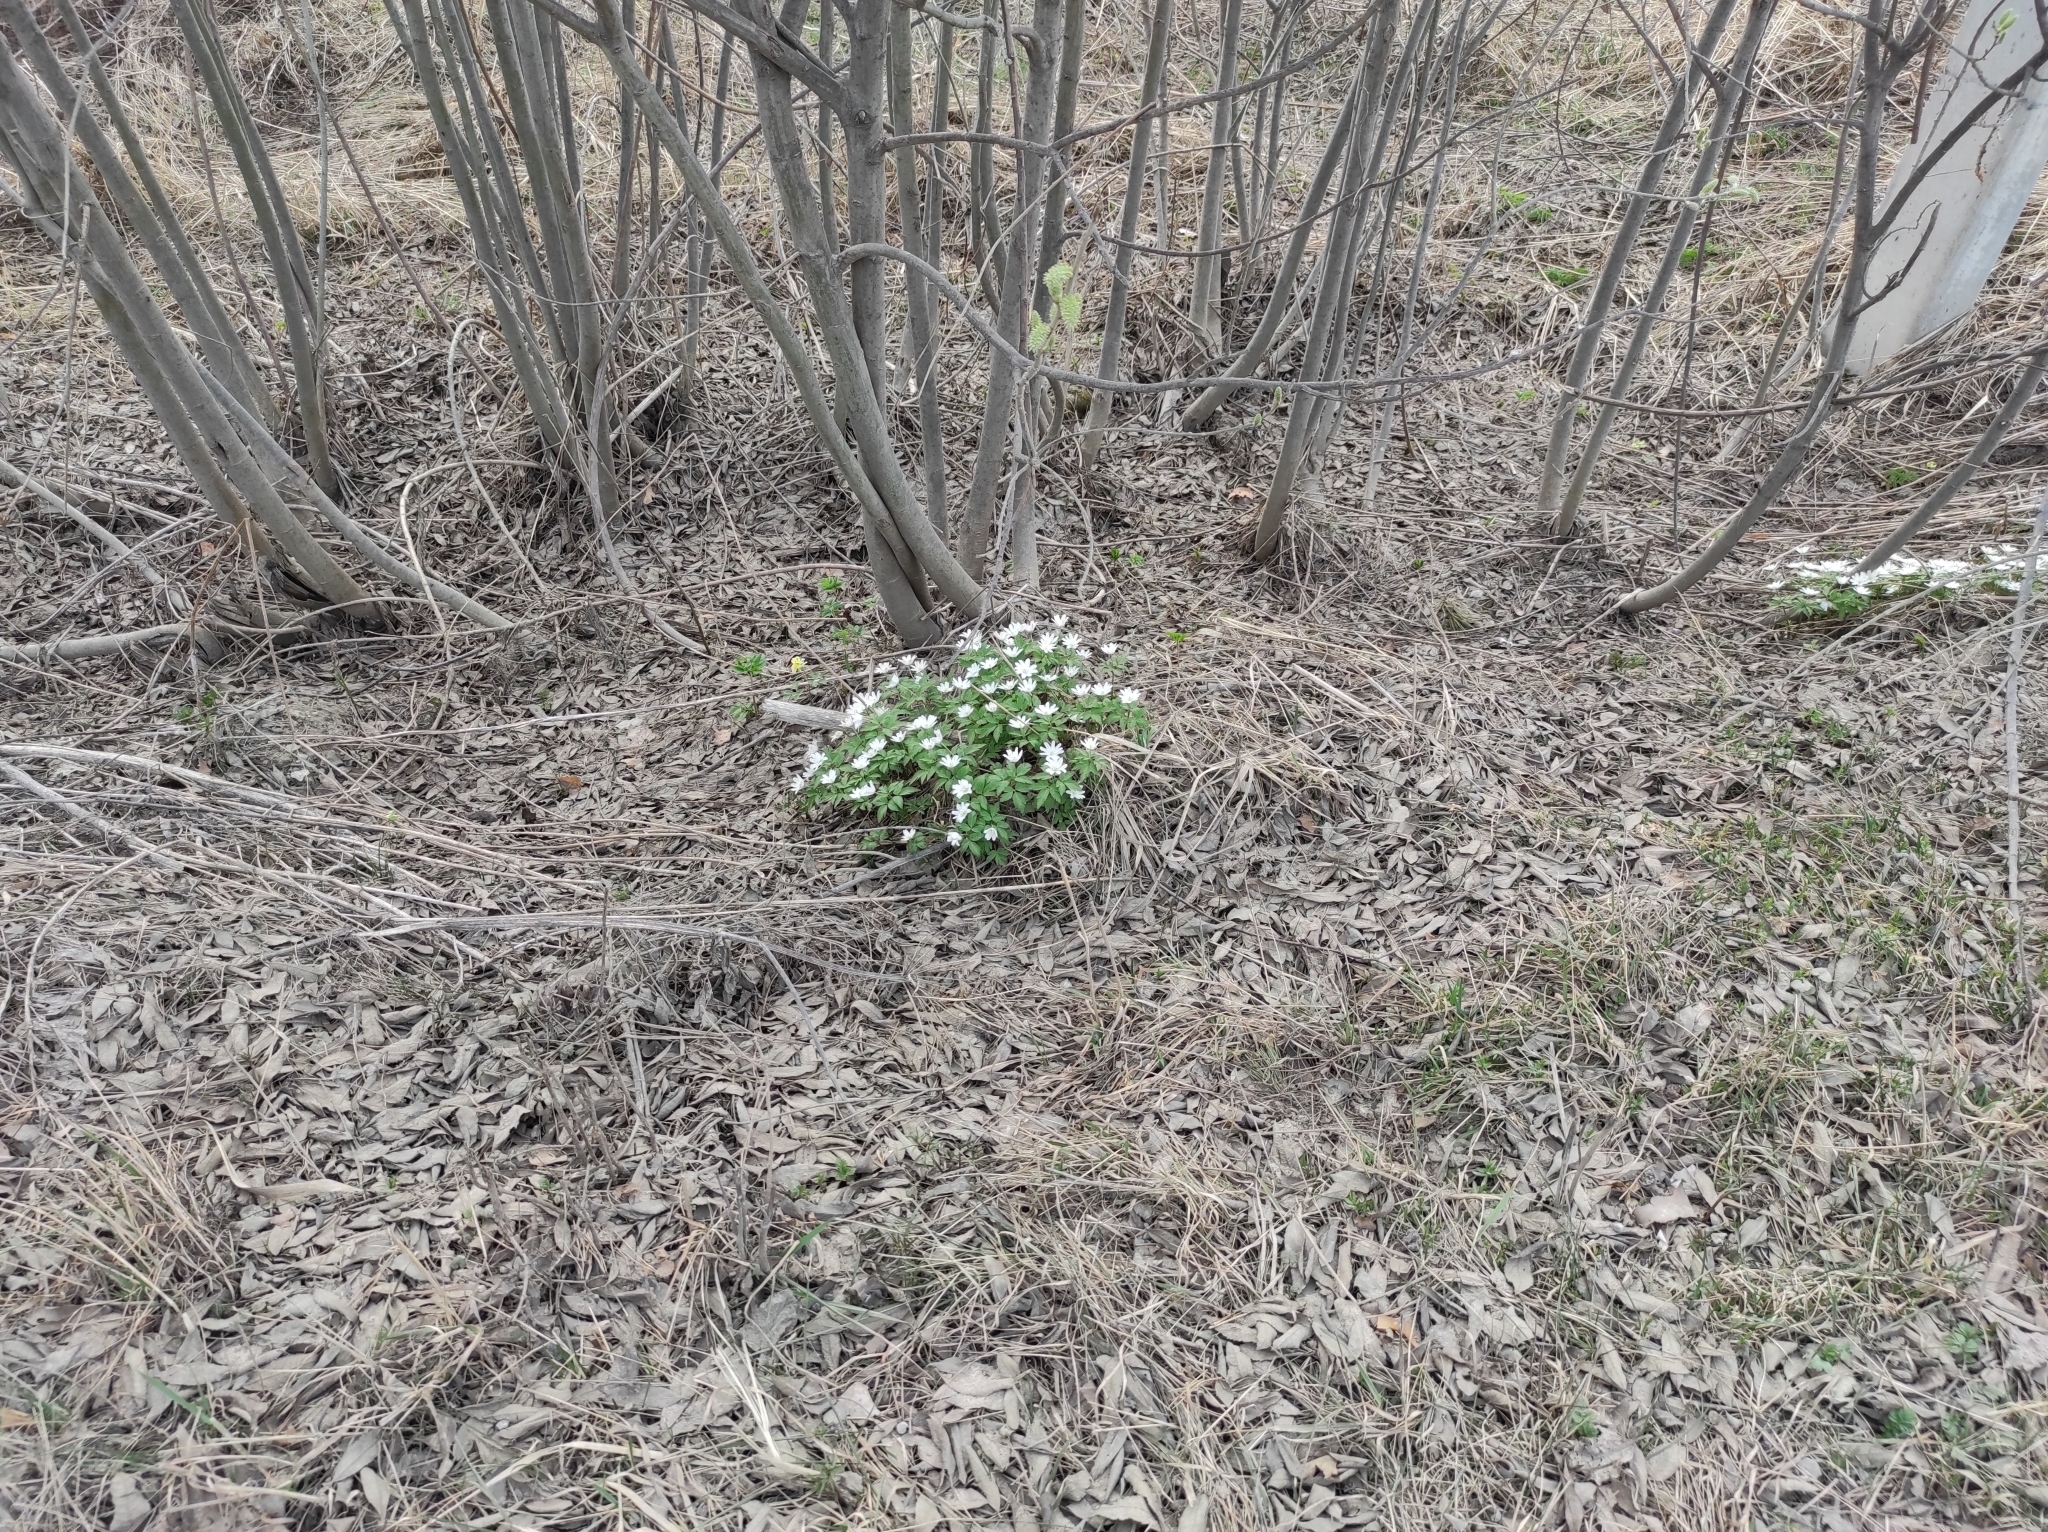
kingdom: Plantae
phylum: Tracheophyta
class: Magnoliopsida
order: Ranunculales
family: Ranunculaceae
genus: Anemone
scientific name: Anemone altaica
